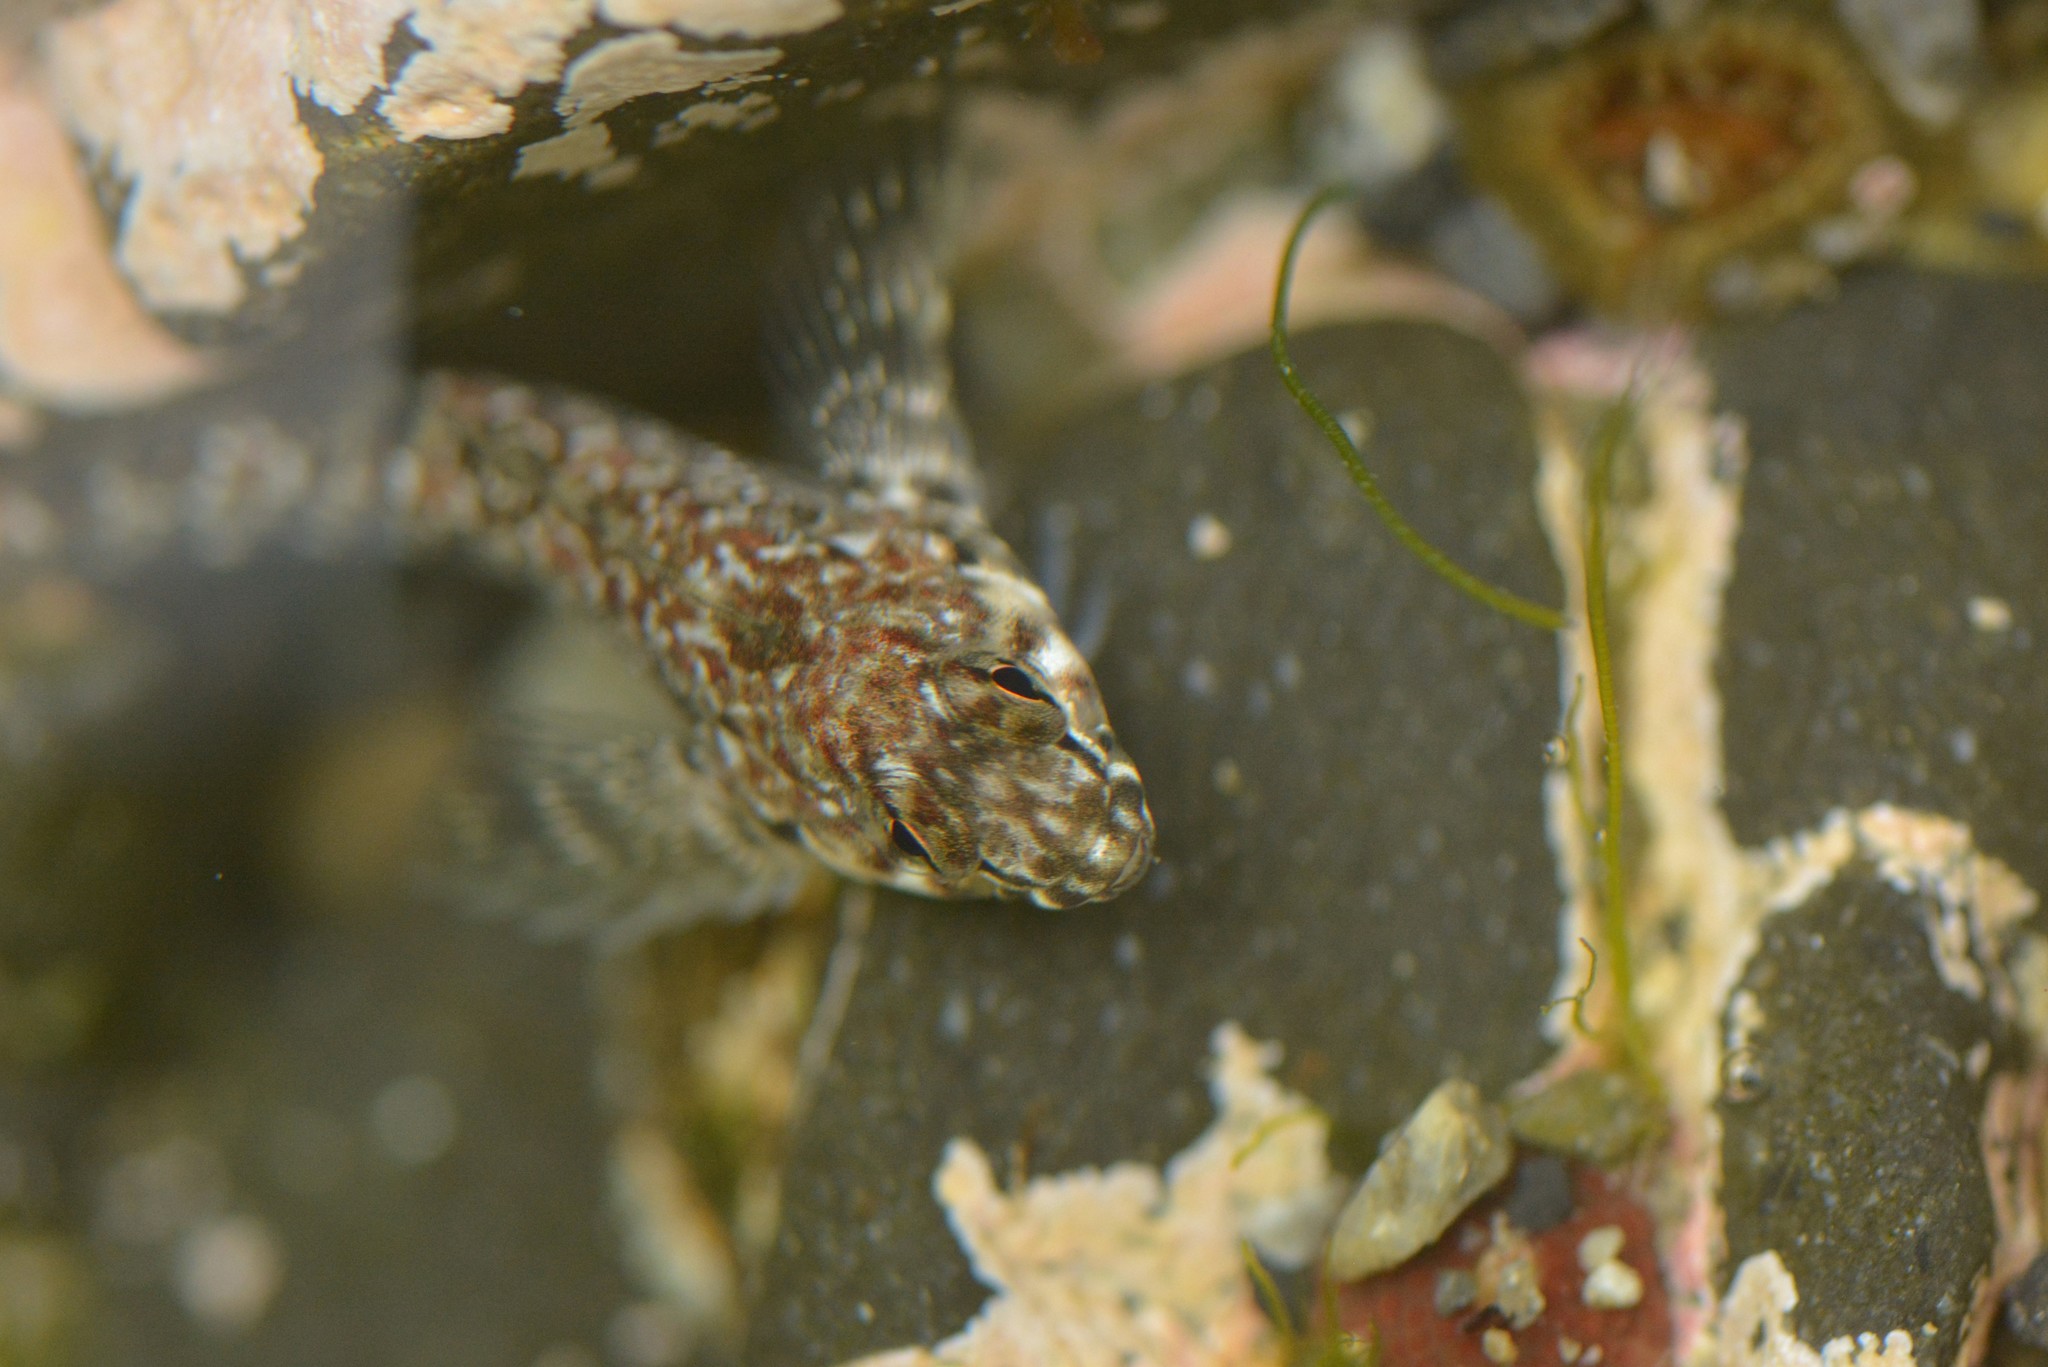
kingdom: Animalia
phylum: Chordata
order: Perciformes
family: Tripterygiidae
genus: Bellapiscis
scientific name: Bellapiscis medius
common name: Twister
